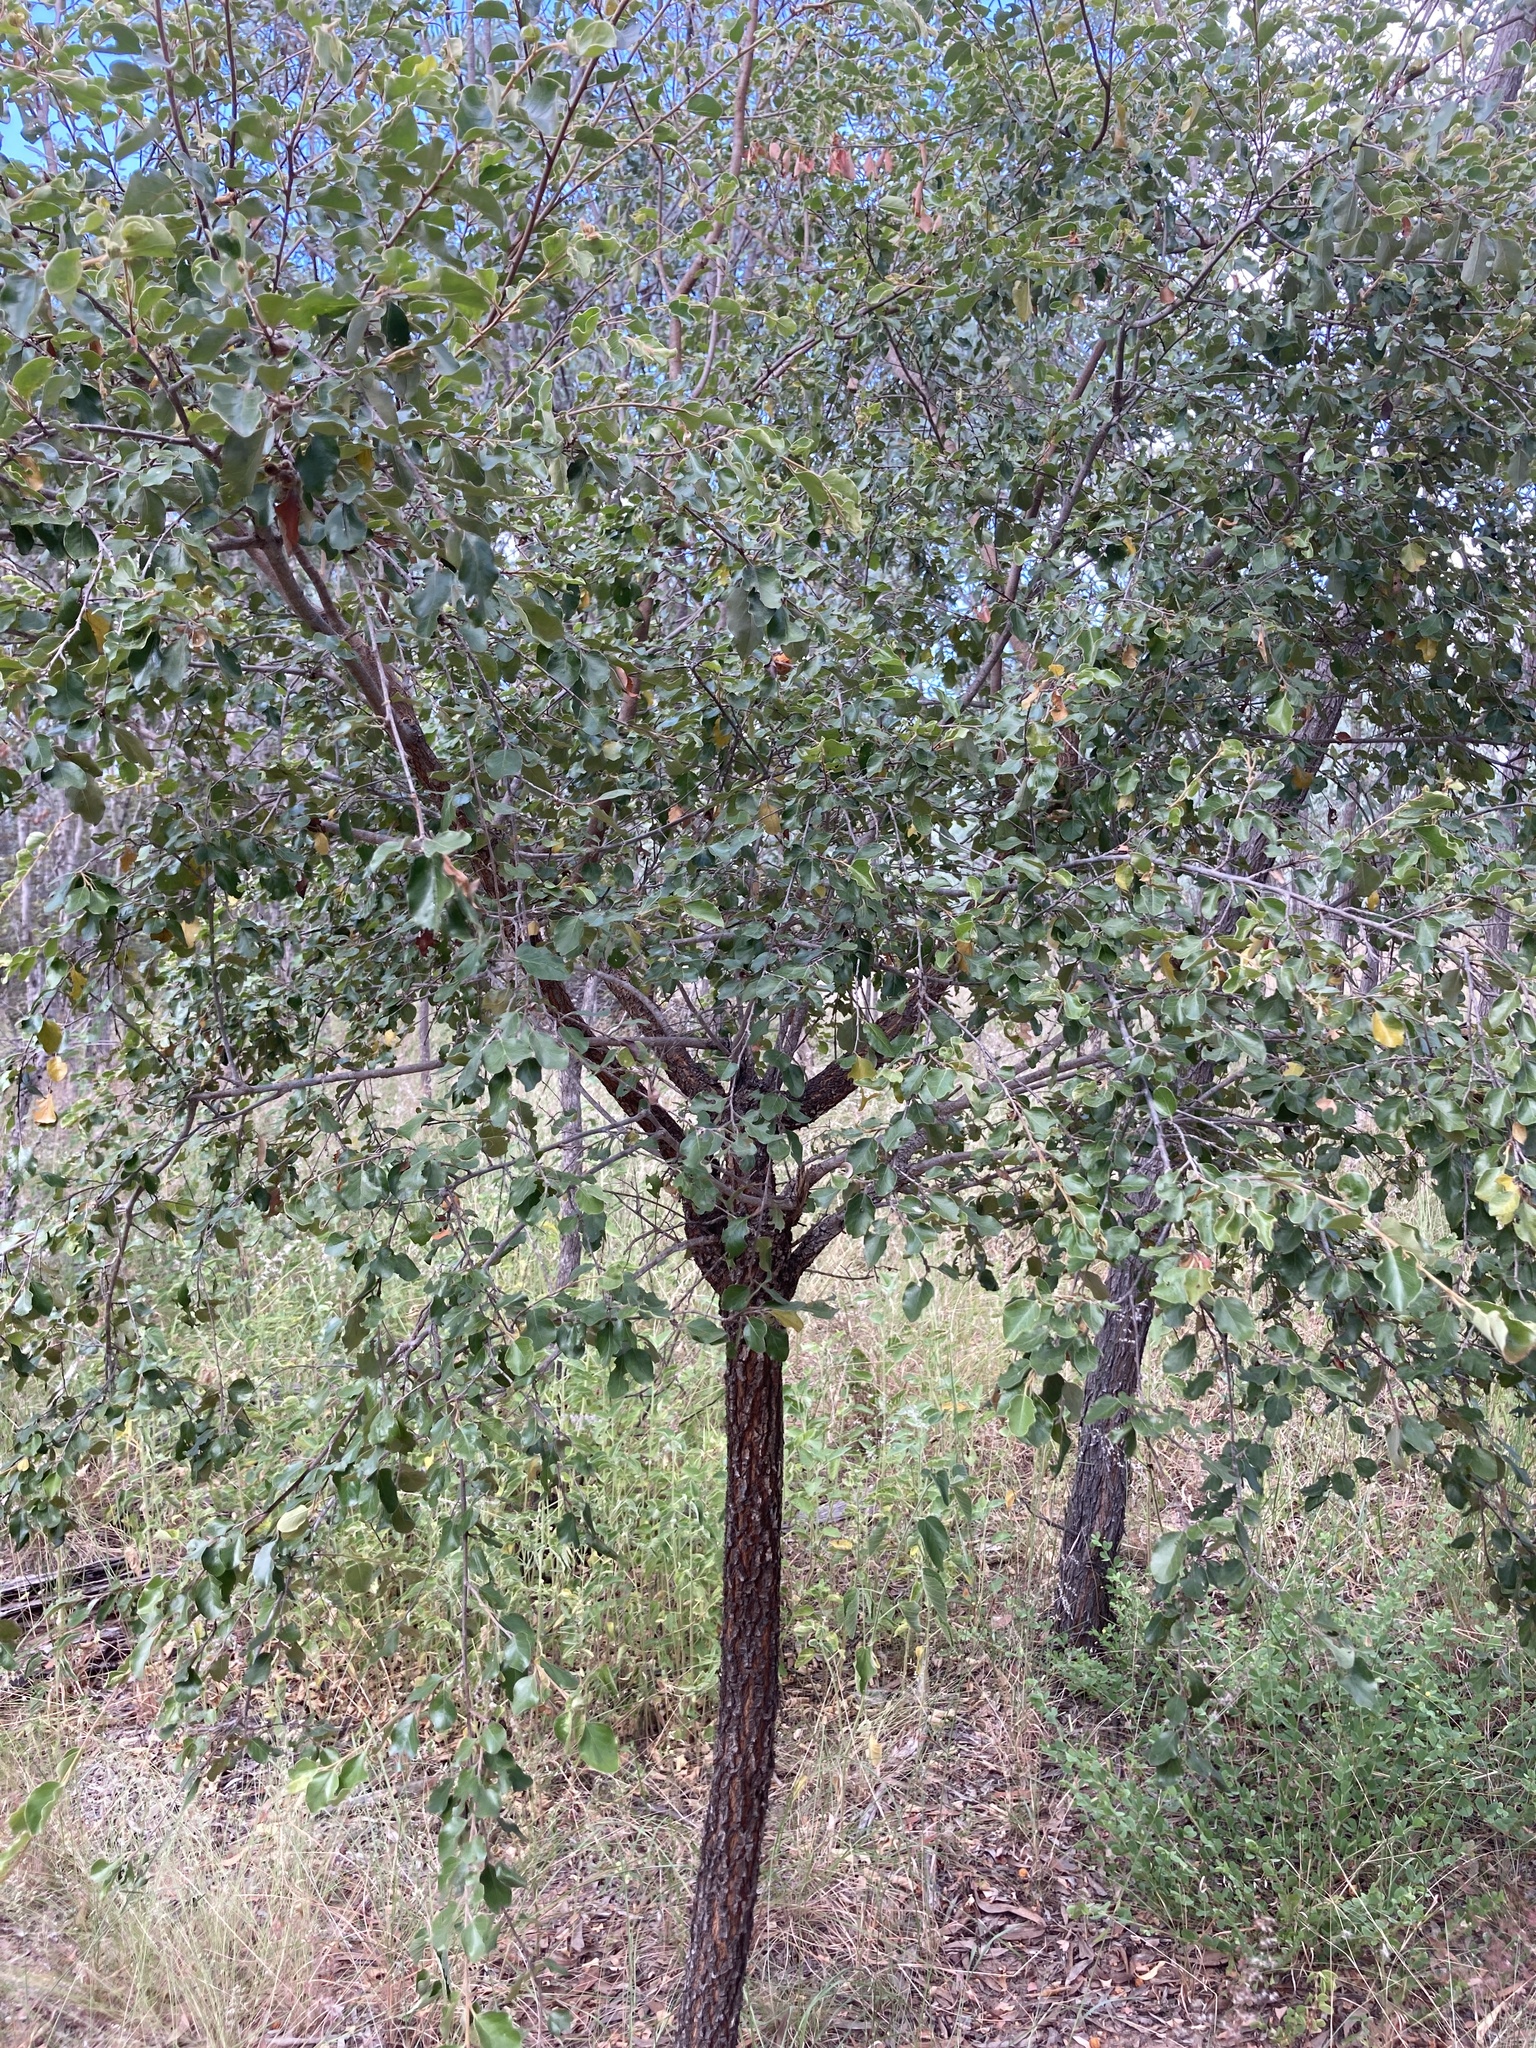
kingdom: Plantae
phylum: Tracheophyta
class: Magnoliopsida
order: Malpighiales
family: Picrodendraceae
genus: Petalostigma
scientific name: Petalostigma pubescens
